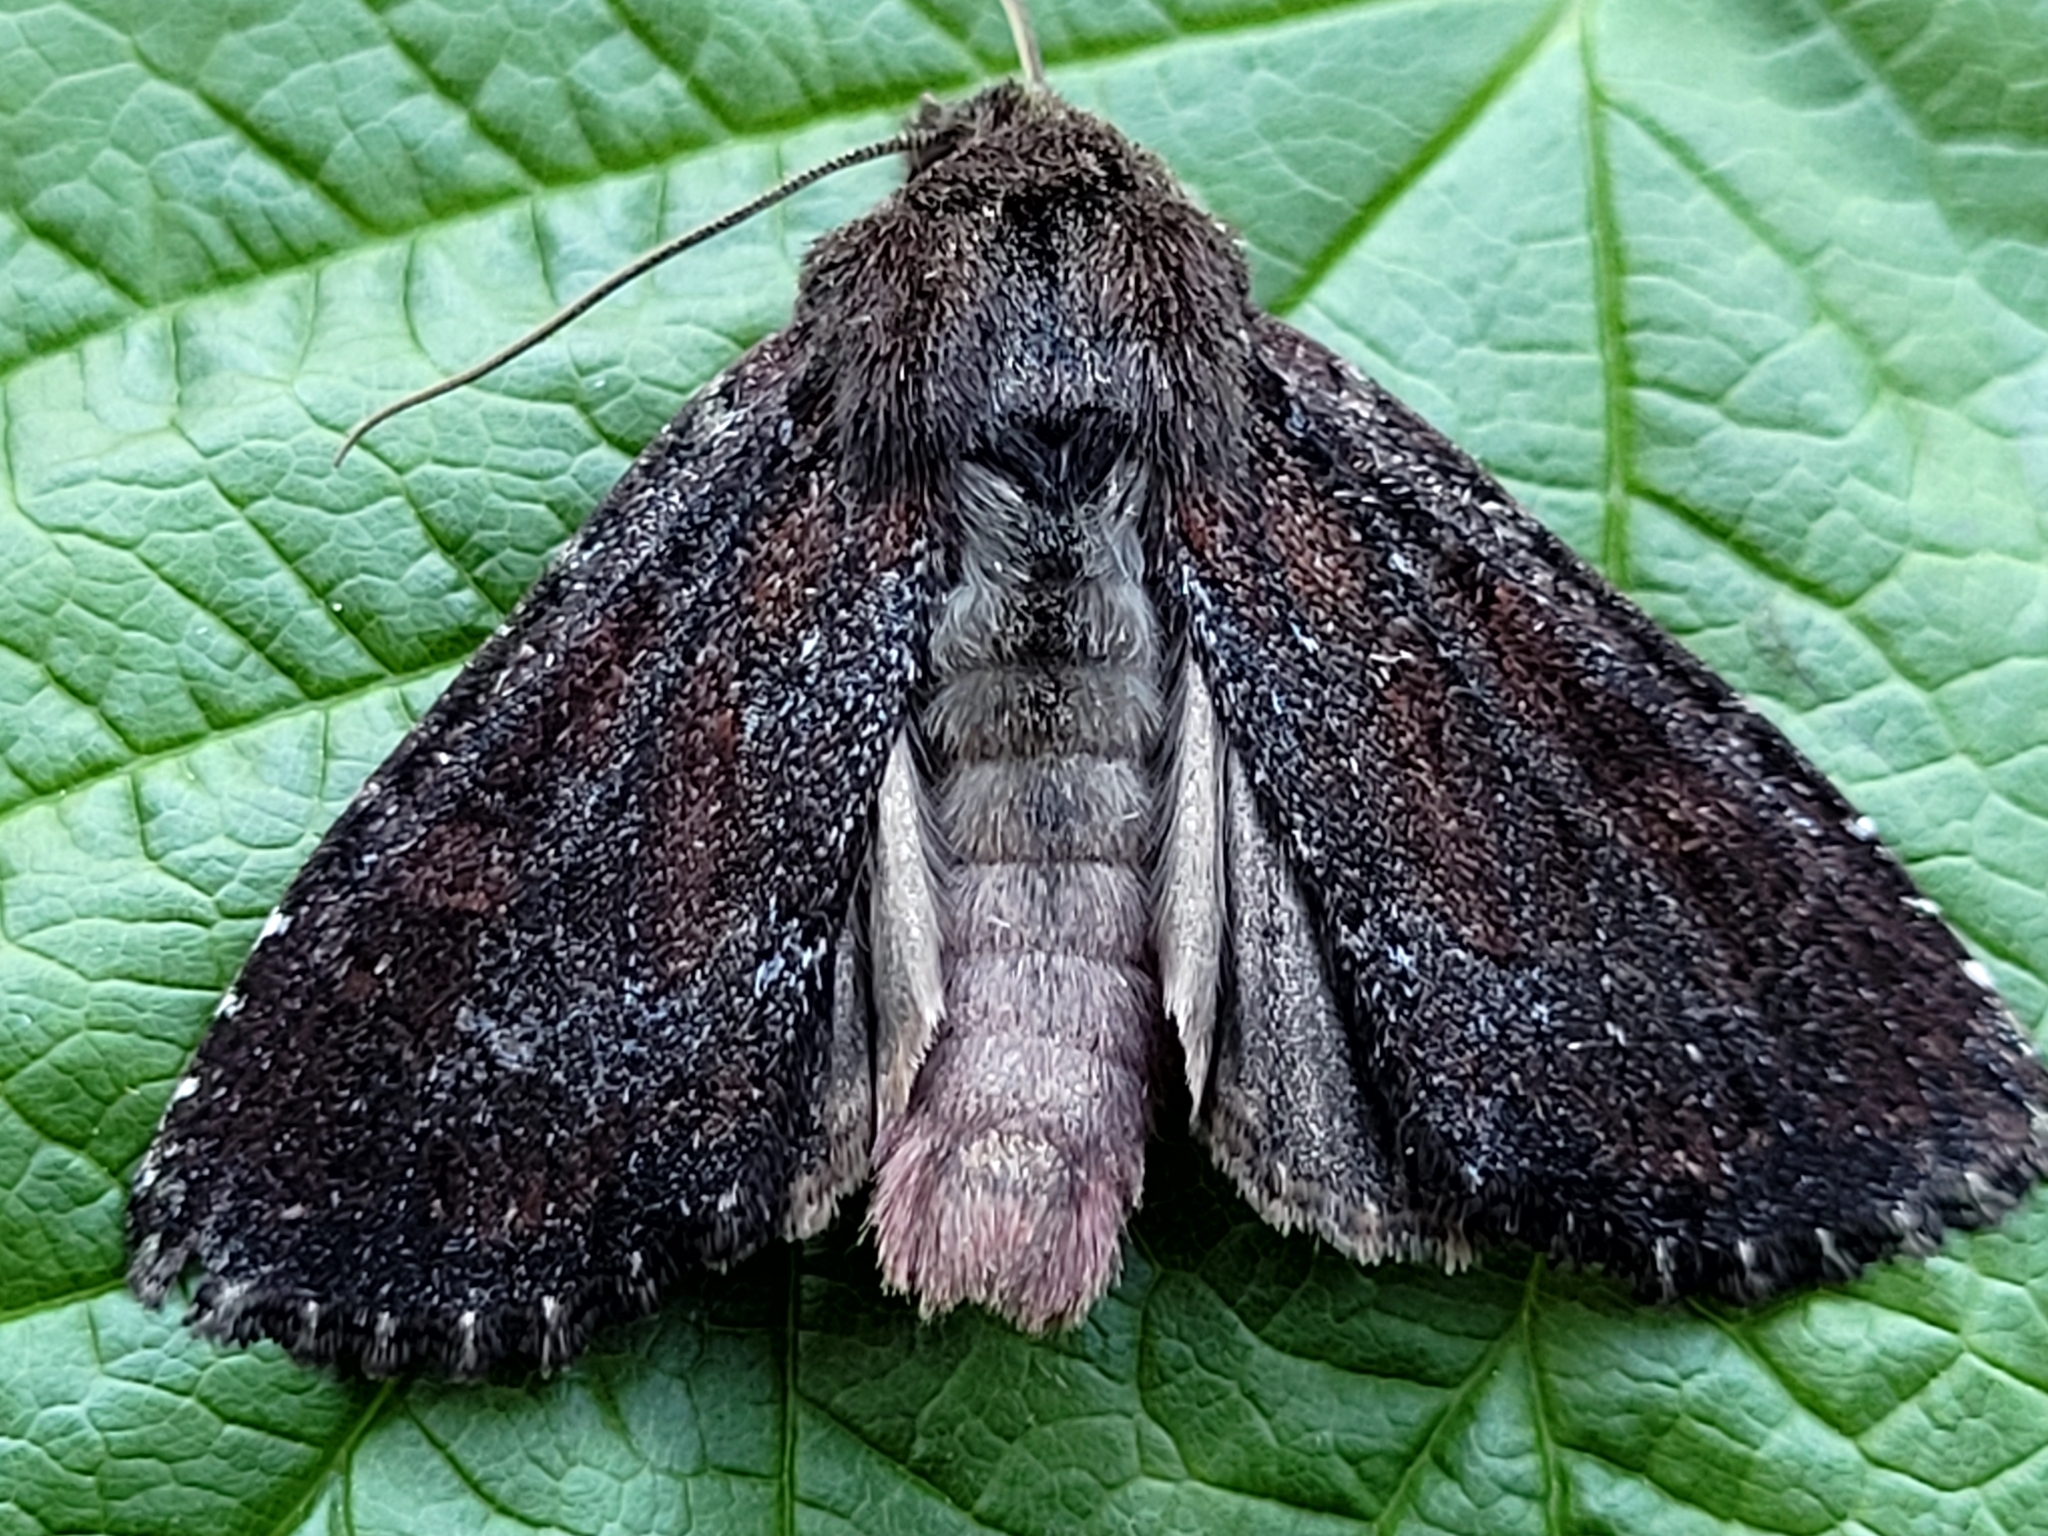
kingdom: Animalia
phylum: Arthropoda
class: Insecta
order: Lepidoptera
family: Noctuidae
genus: Apamea
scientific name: Apamea commoda
